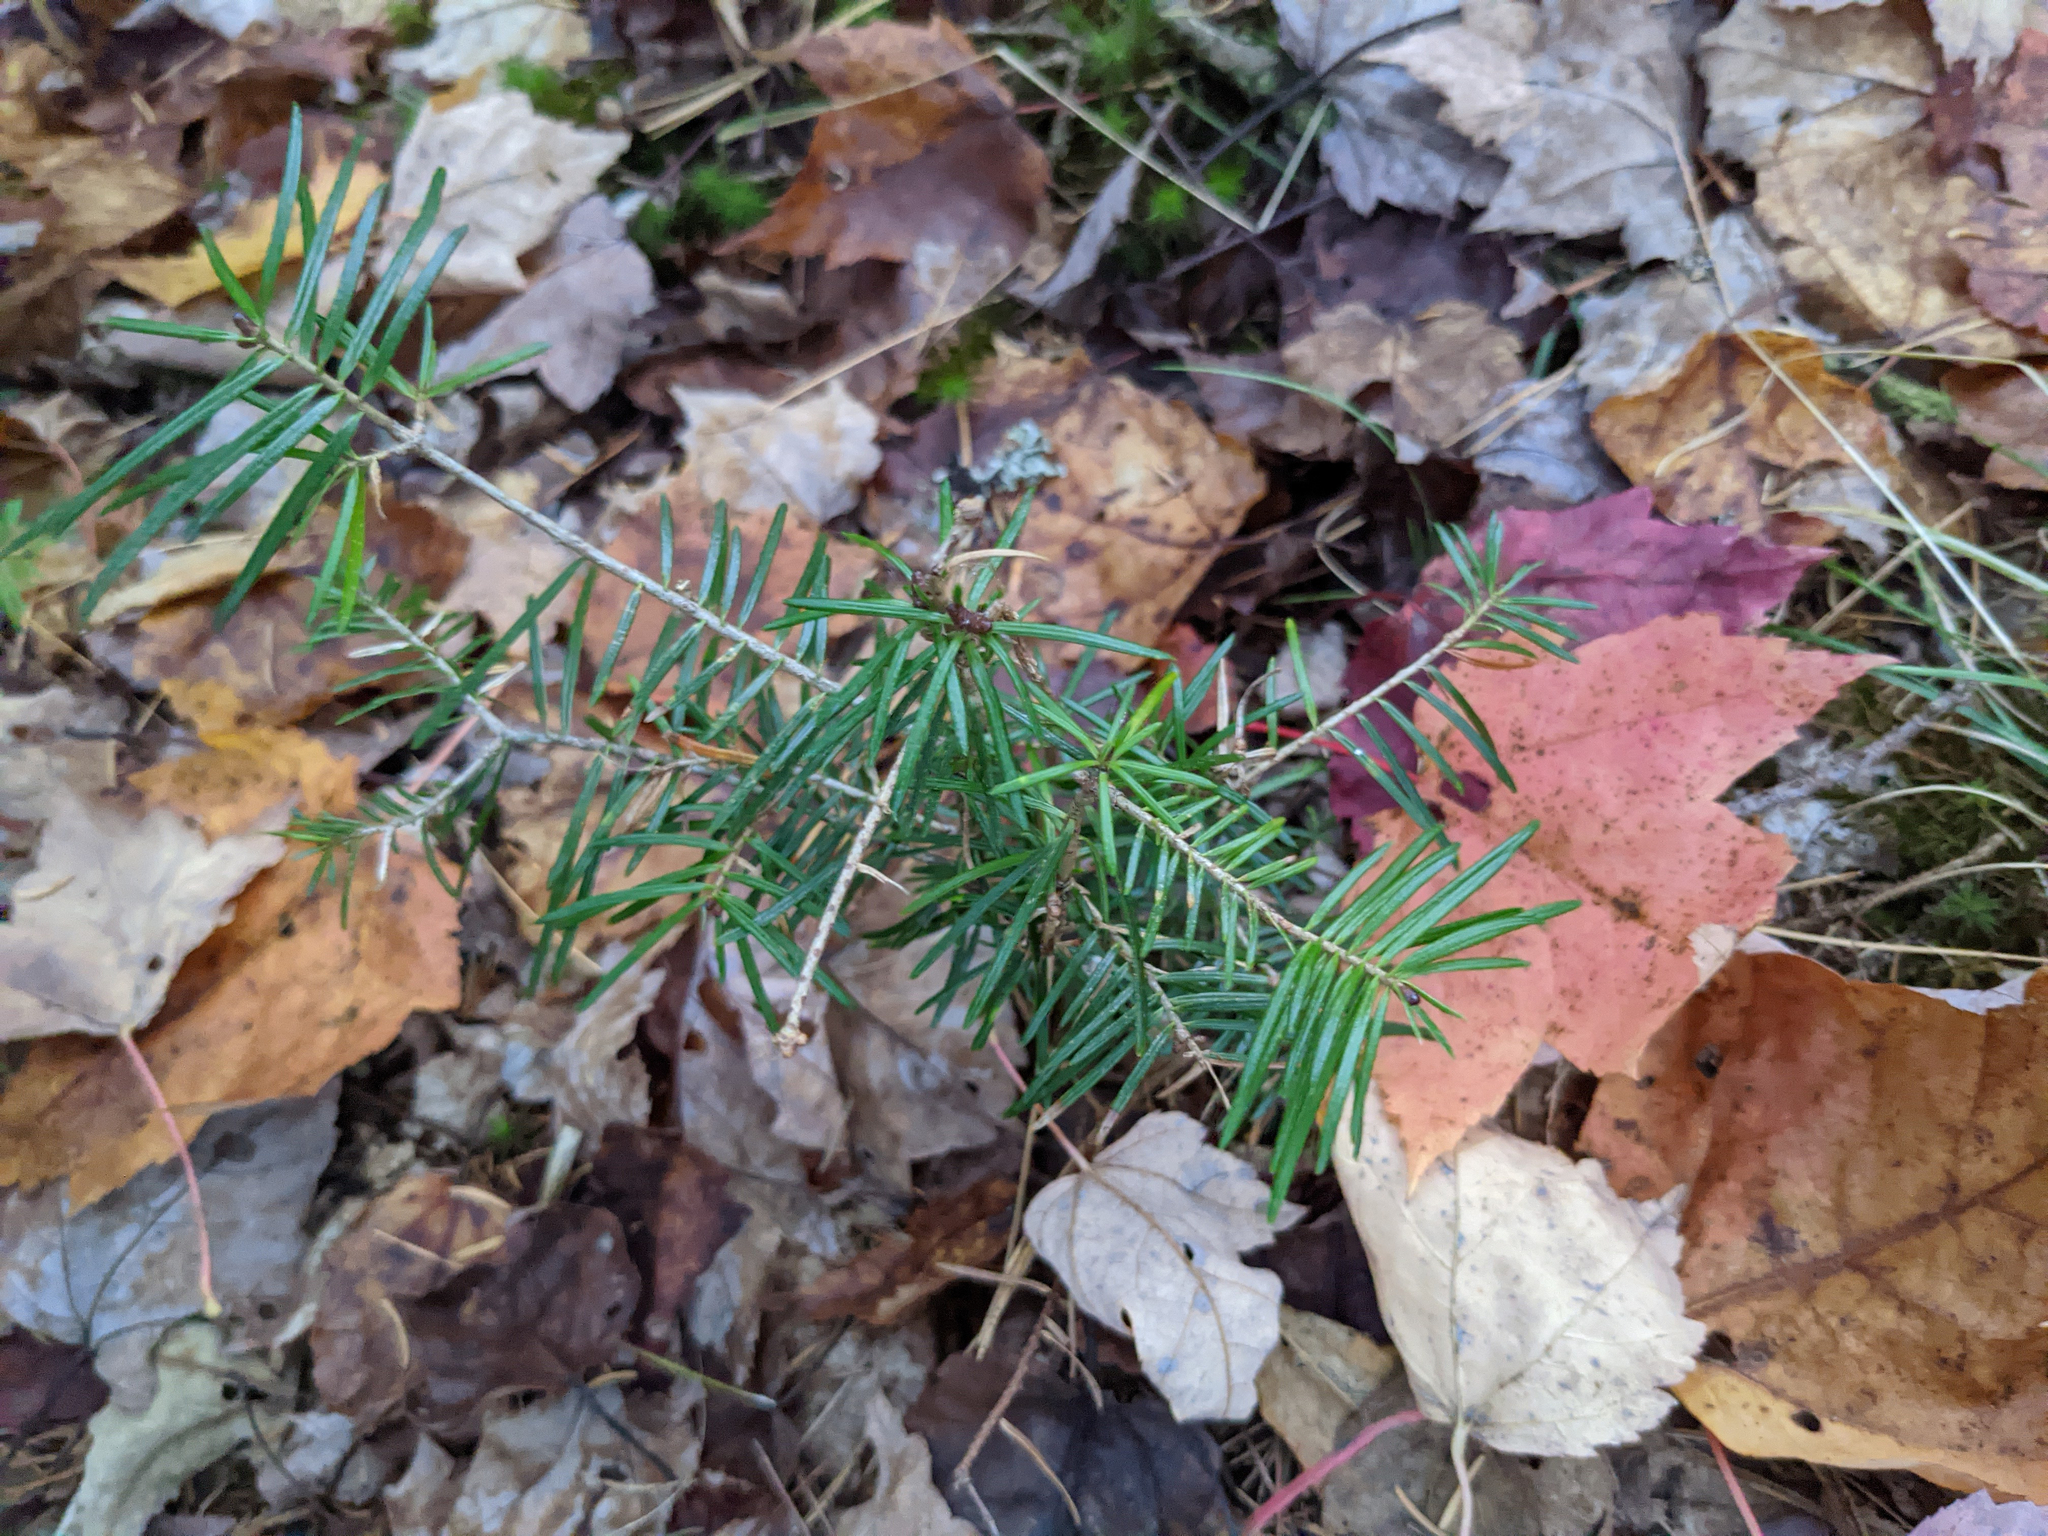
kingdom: Plantae
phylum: Tracheophyta
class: Pinopsida
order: Pinales
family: Pinaceae
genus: Abies
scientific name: Abies balsamea
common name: Balsam fir
